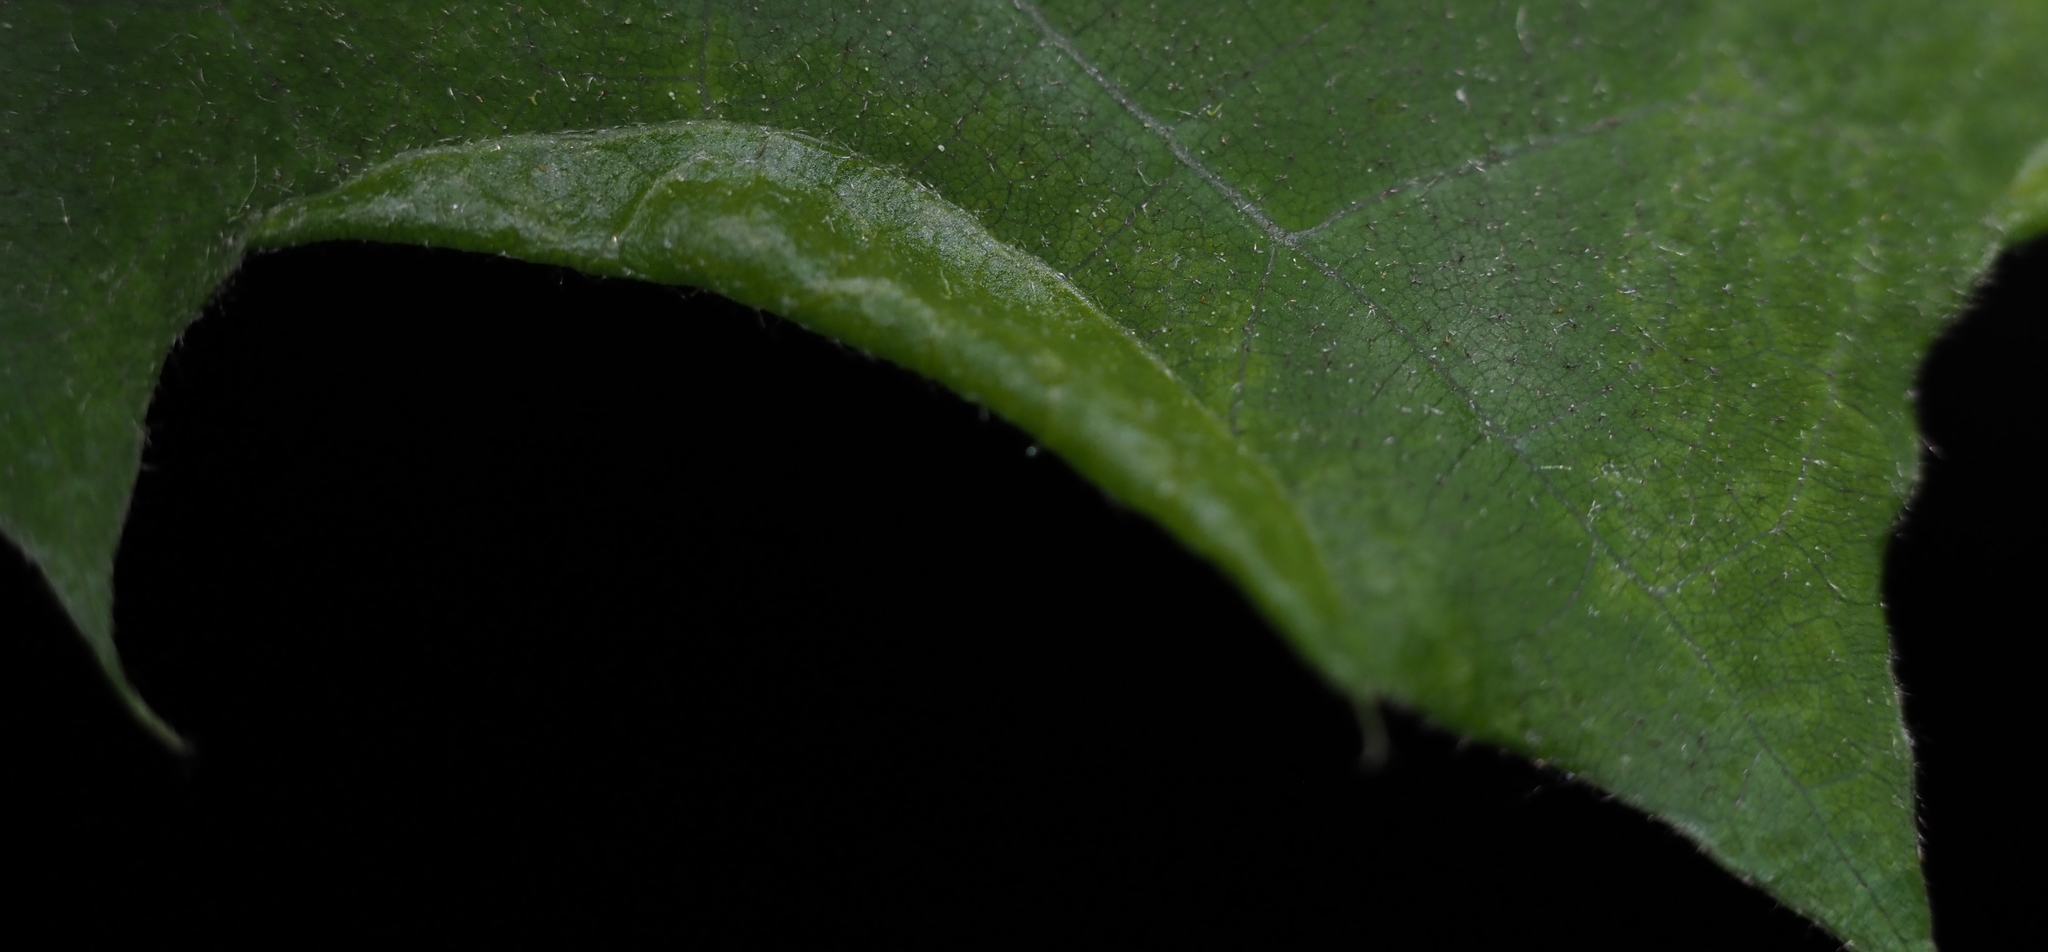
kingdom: Animalia
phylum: Arthropoda
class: Insecta
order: Diptera
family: Cecidomyiidae
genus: Macrodiplosis
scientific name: Macrodiplosis erubescens
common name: Marginal leaf fold gall midge
